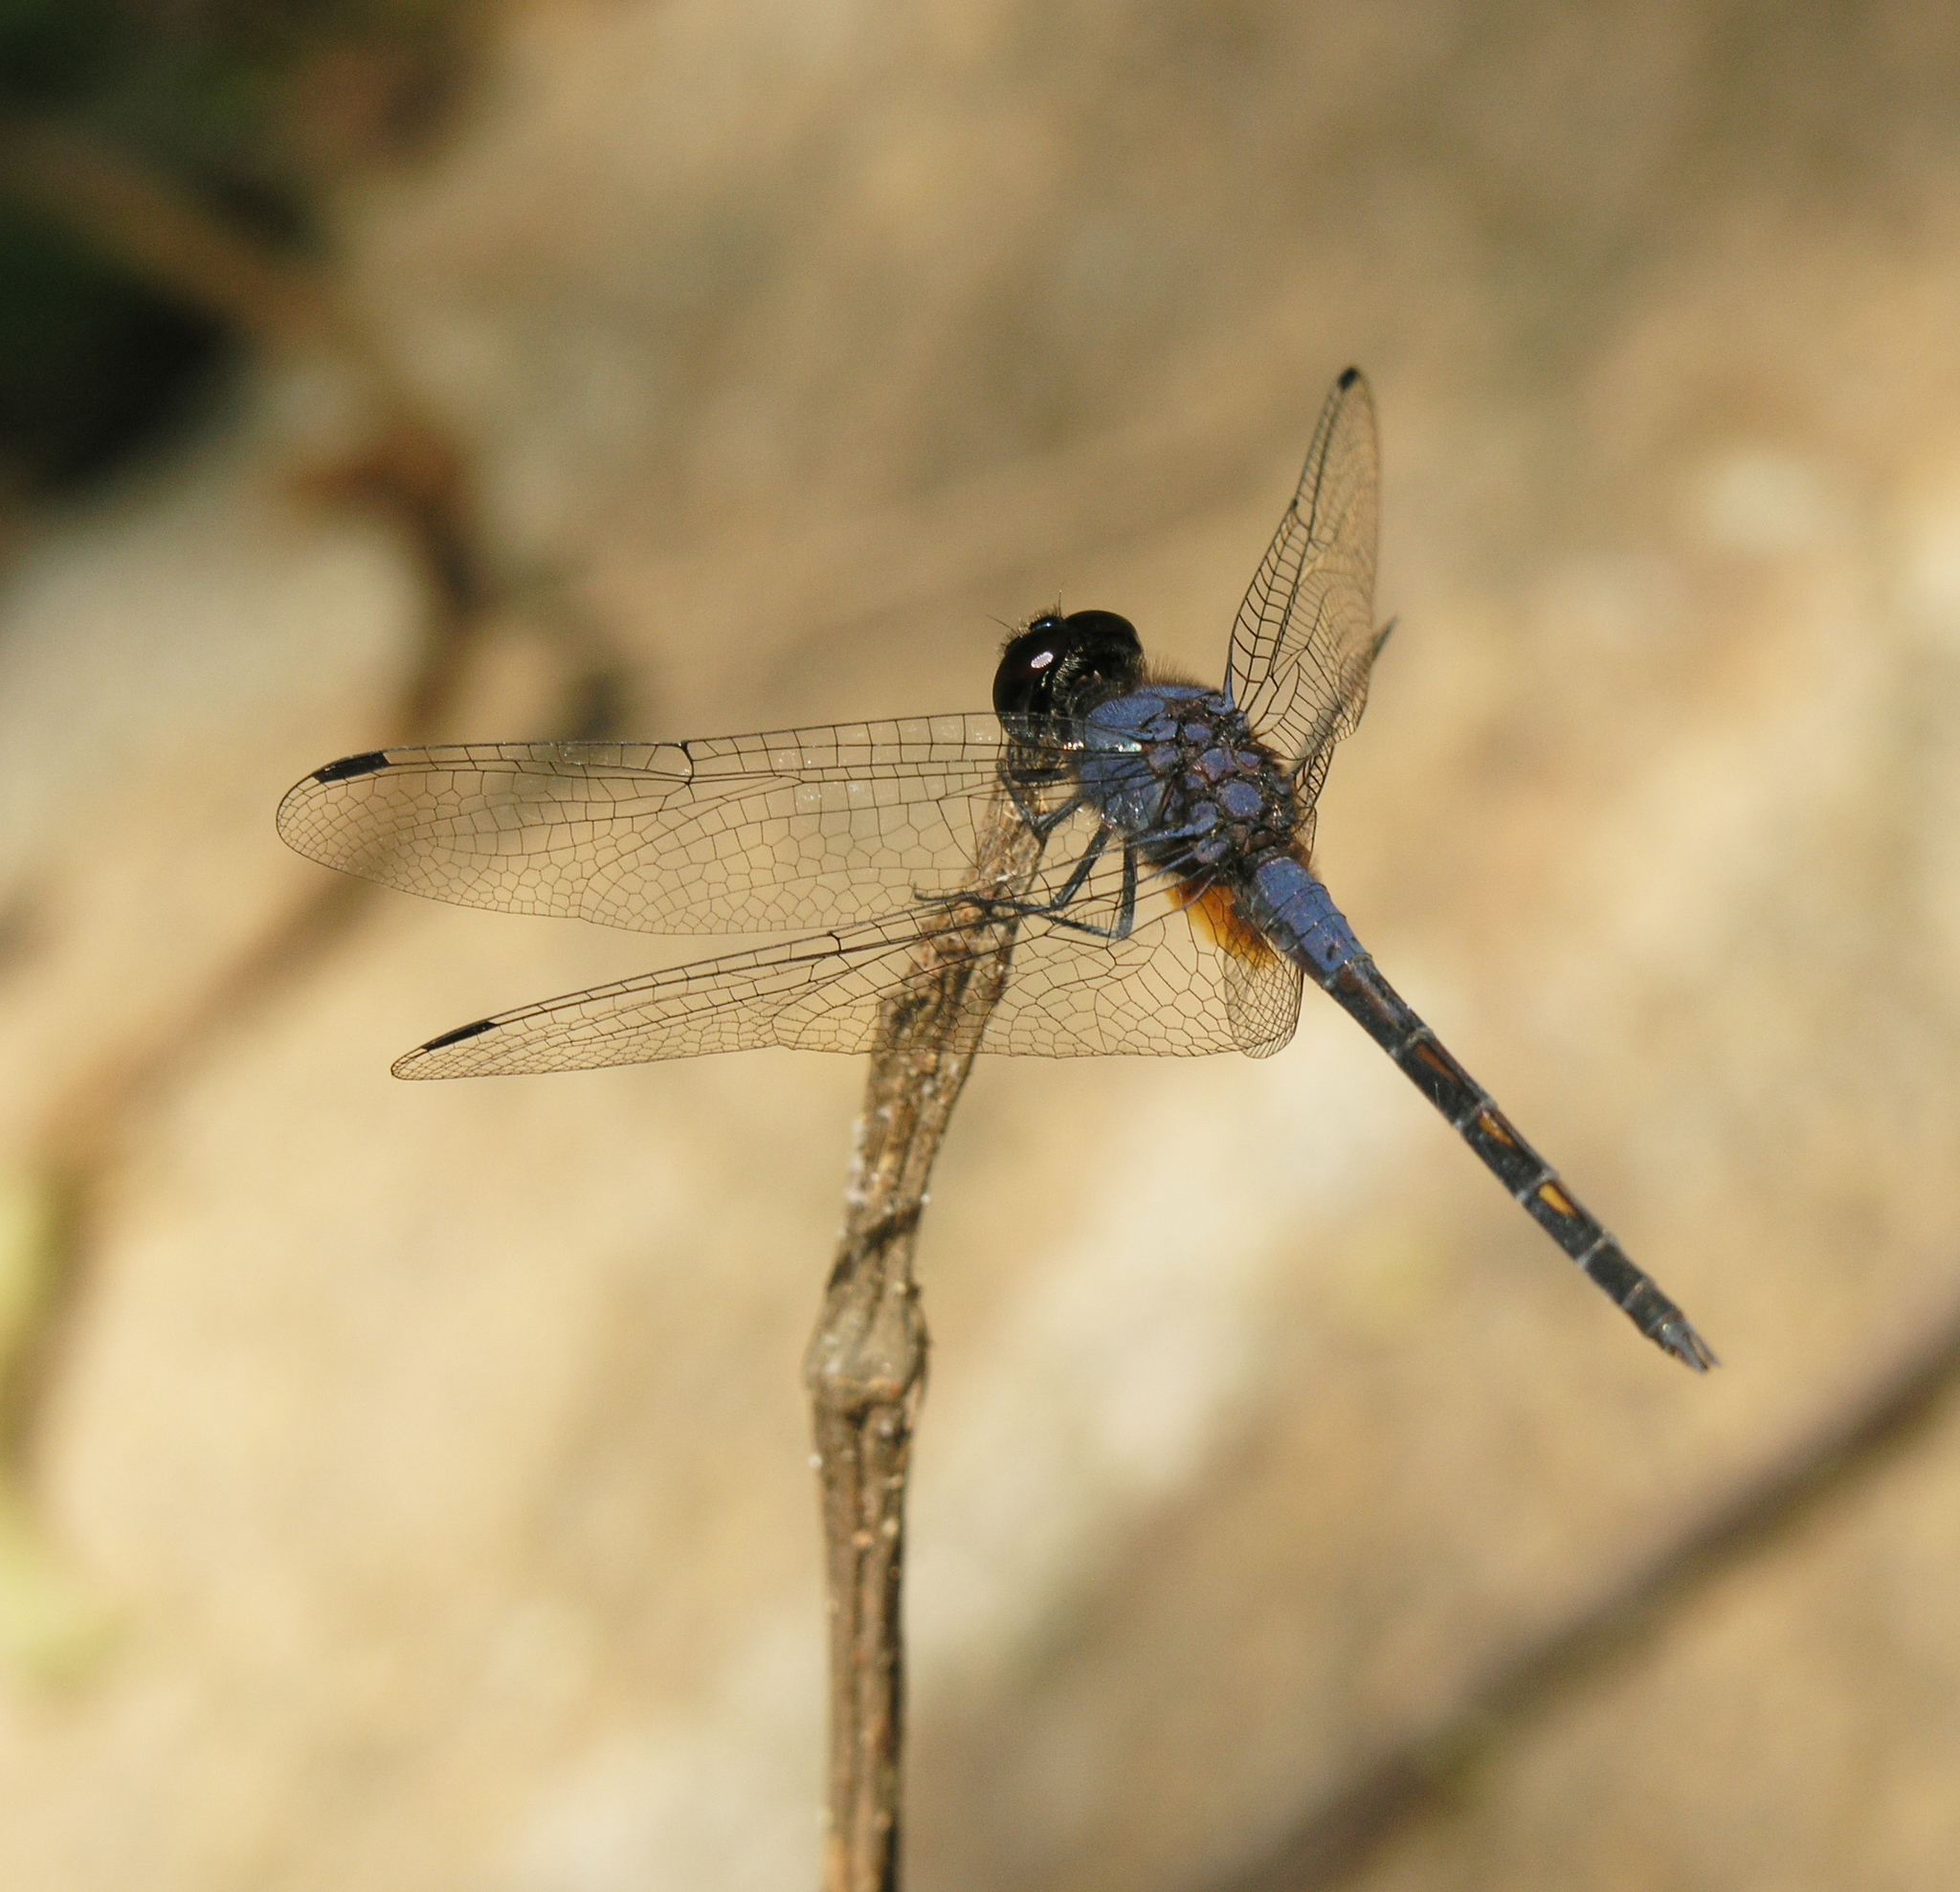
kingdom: Animalia
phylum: Arthropoda
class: Insecta
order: Odonata
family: Libellulidae
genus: Trithemis
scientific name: Trithemis festiva
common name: Indigo dropwing
